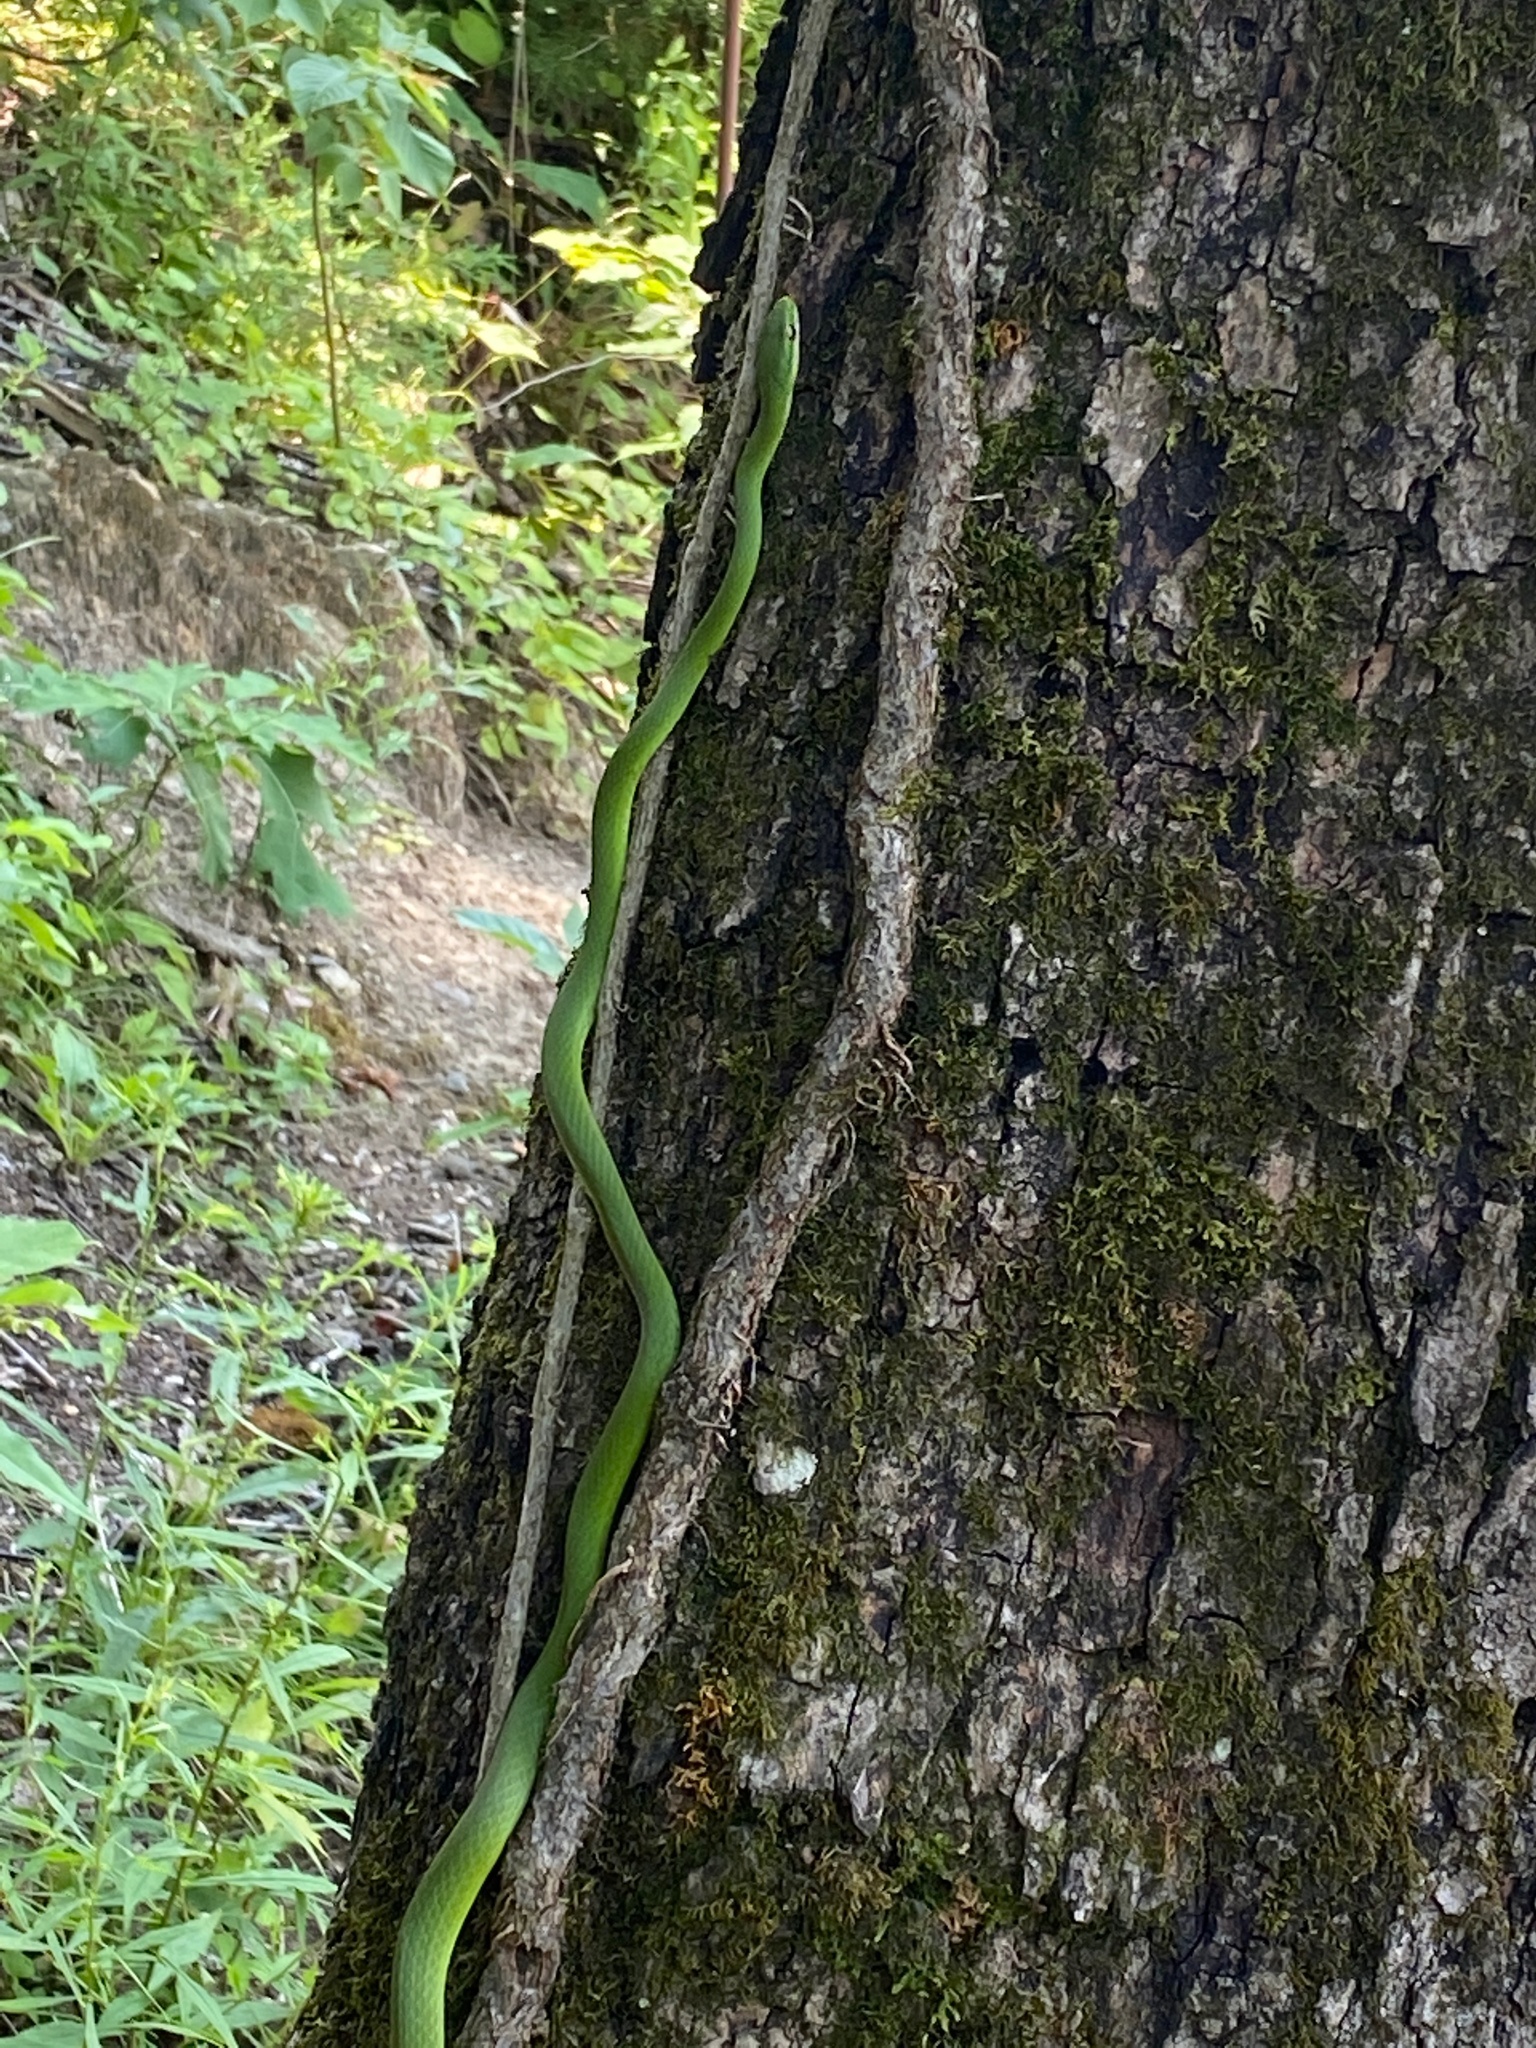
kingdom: Animalia
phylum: Chordata
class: Squamata
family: Colubridae
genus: Opheodrys
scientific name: Opheodrys aestivus
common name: Rough greensnake
